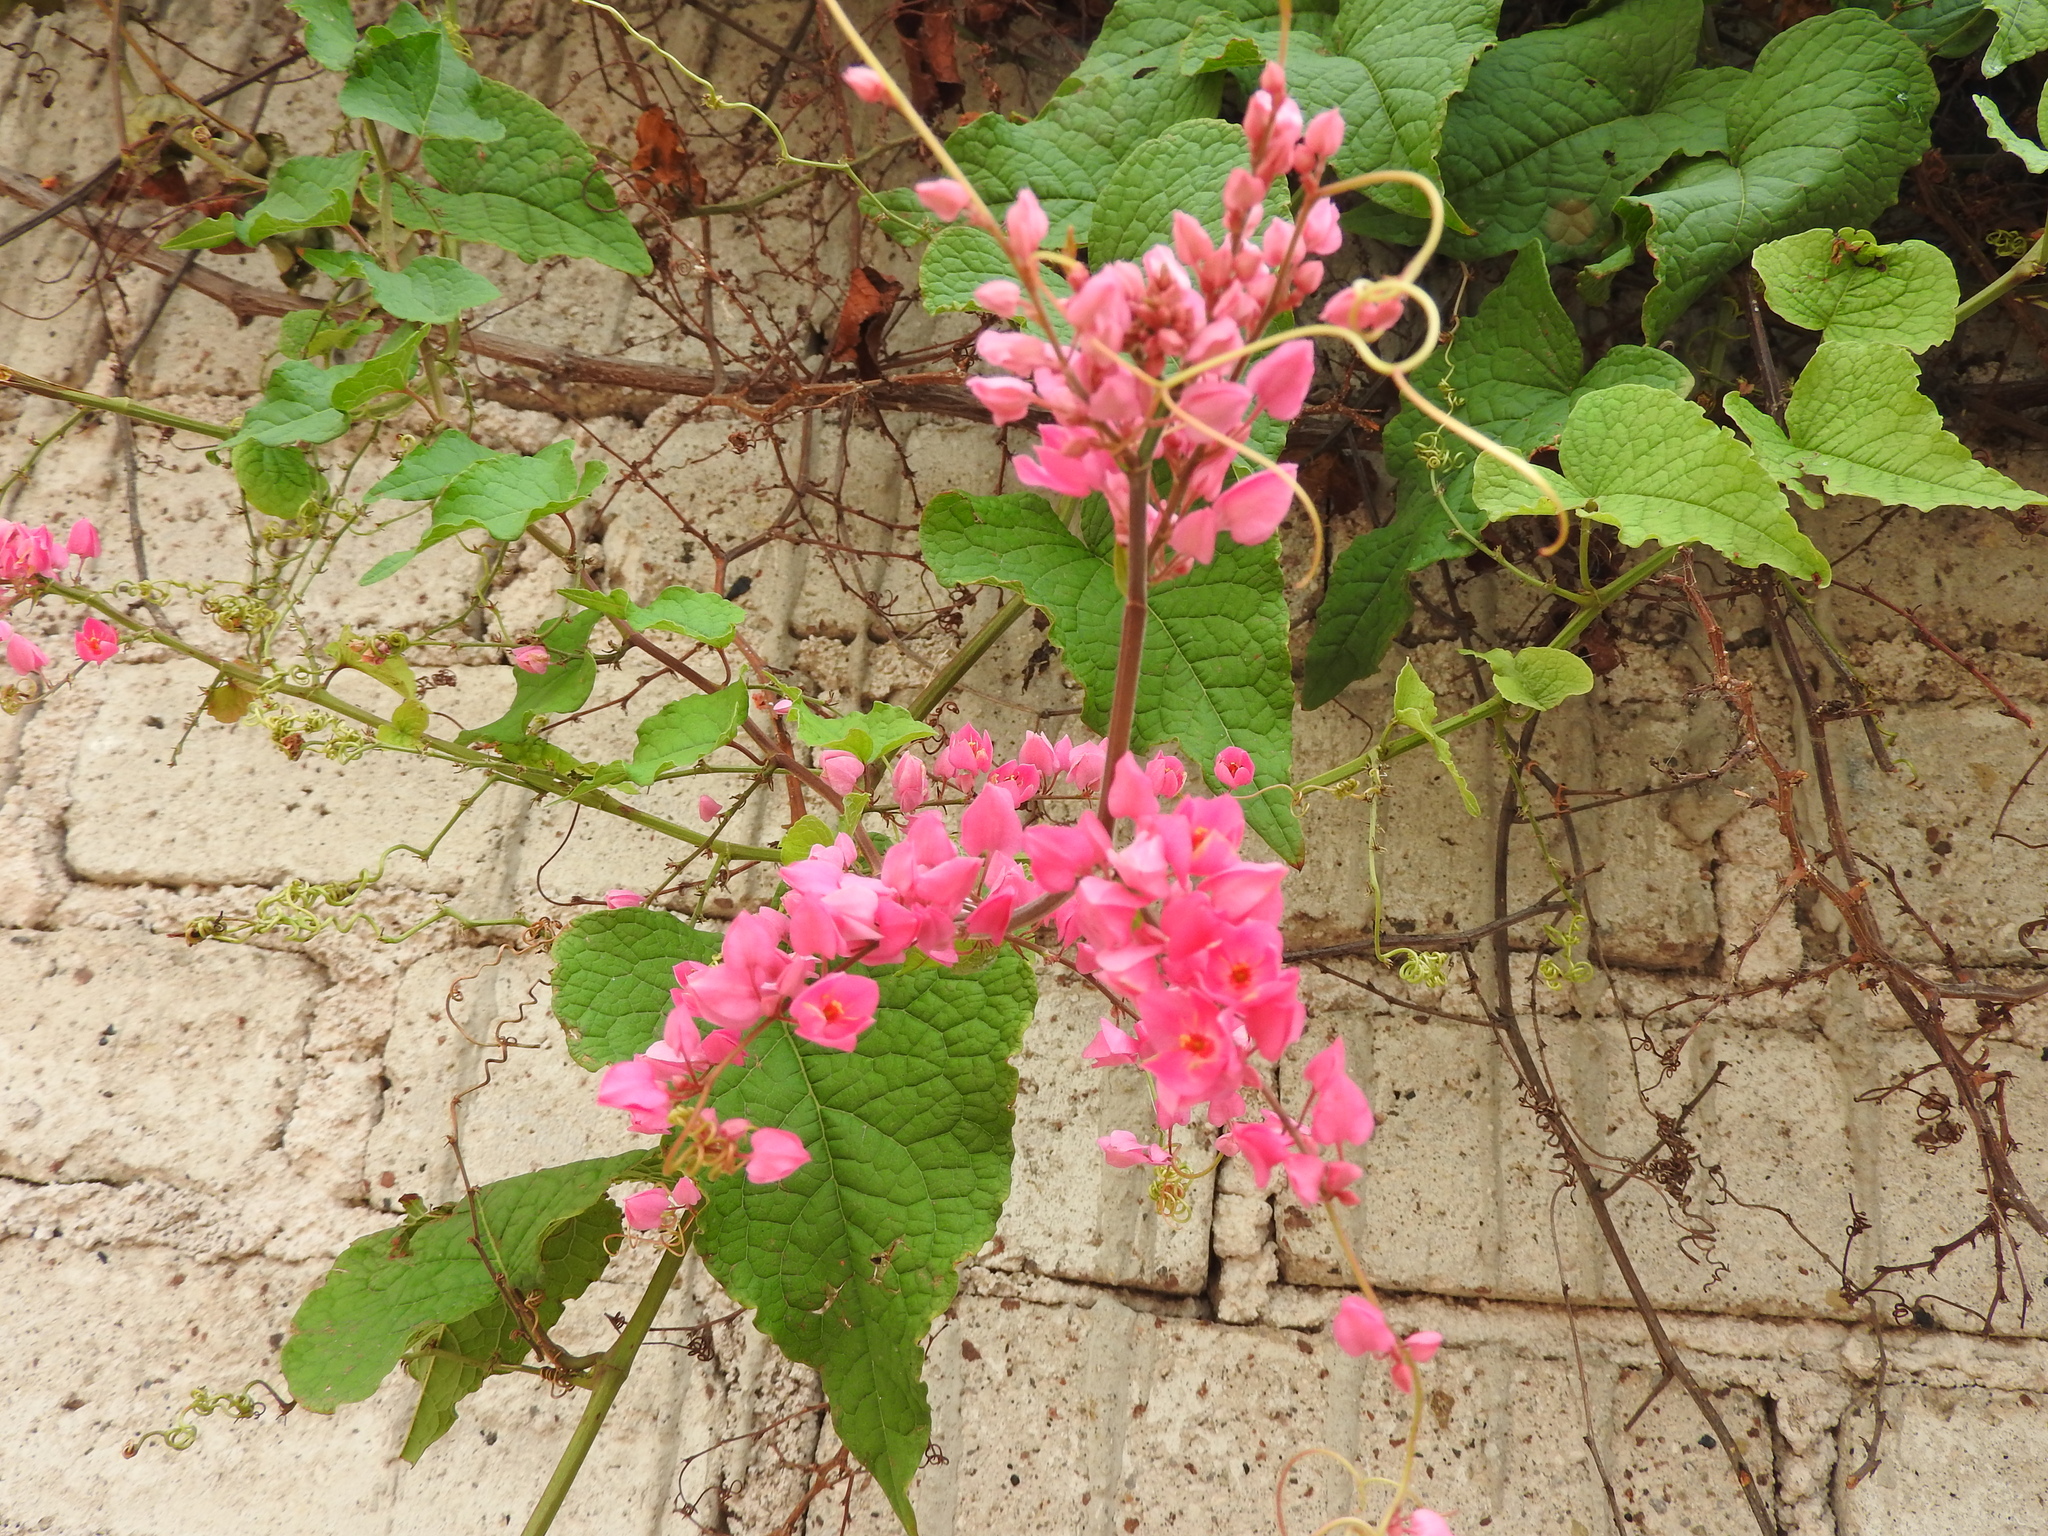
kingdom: Plantae
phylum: Tracheophyta
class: Magnoliopsida
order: Caryophyllales
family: Polygonaceae
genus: Antigonon
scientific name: Antigonon leptopus
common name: Coral vine
